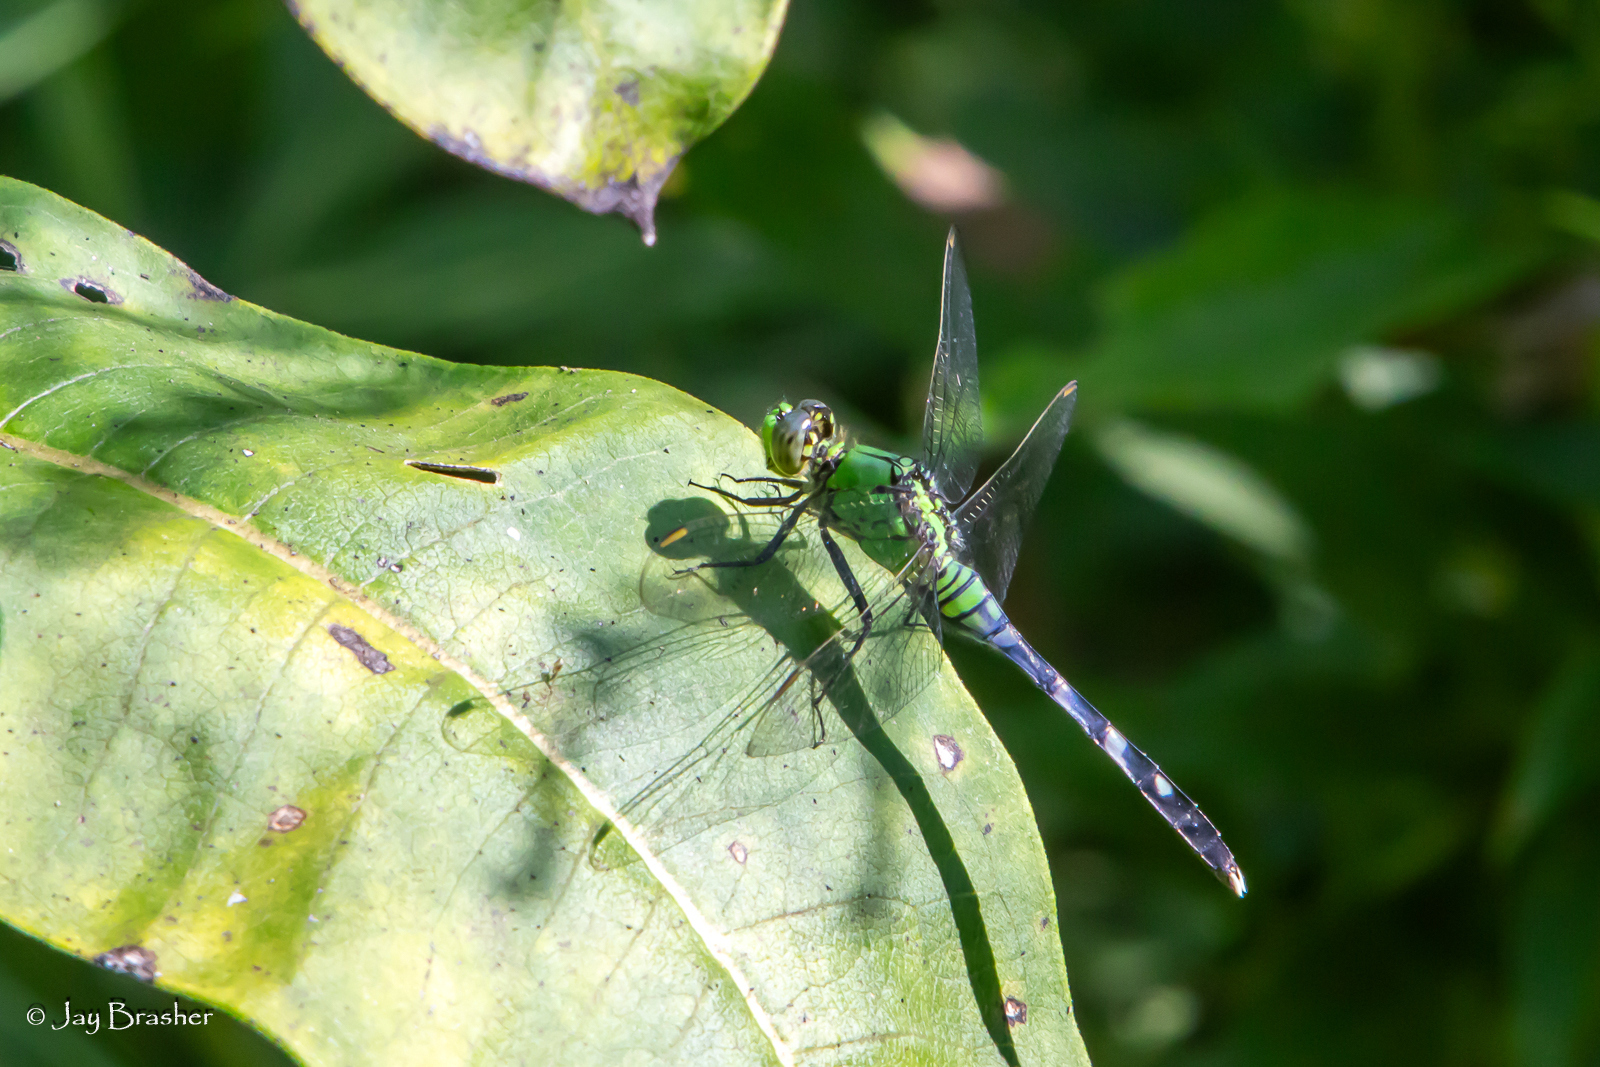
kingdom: Animalia
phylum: Arthropoda
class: Insecta
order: Odonata
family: Libellulidae
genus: Erythemis
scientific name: Erythemis simplicicollis
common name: Eastern pondhawk
